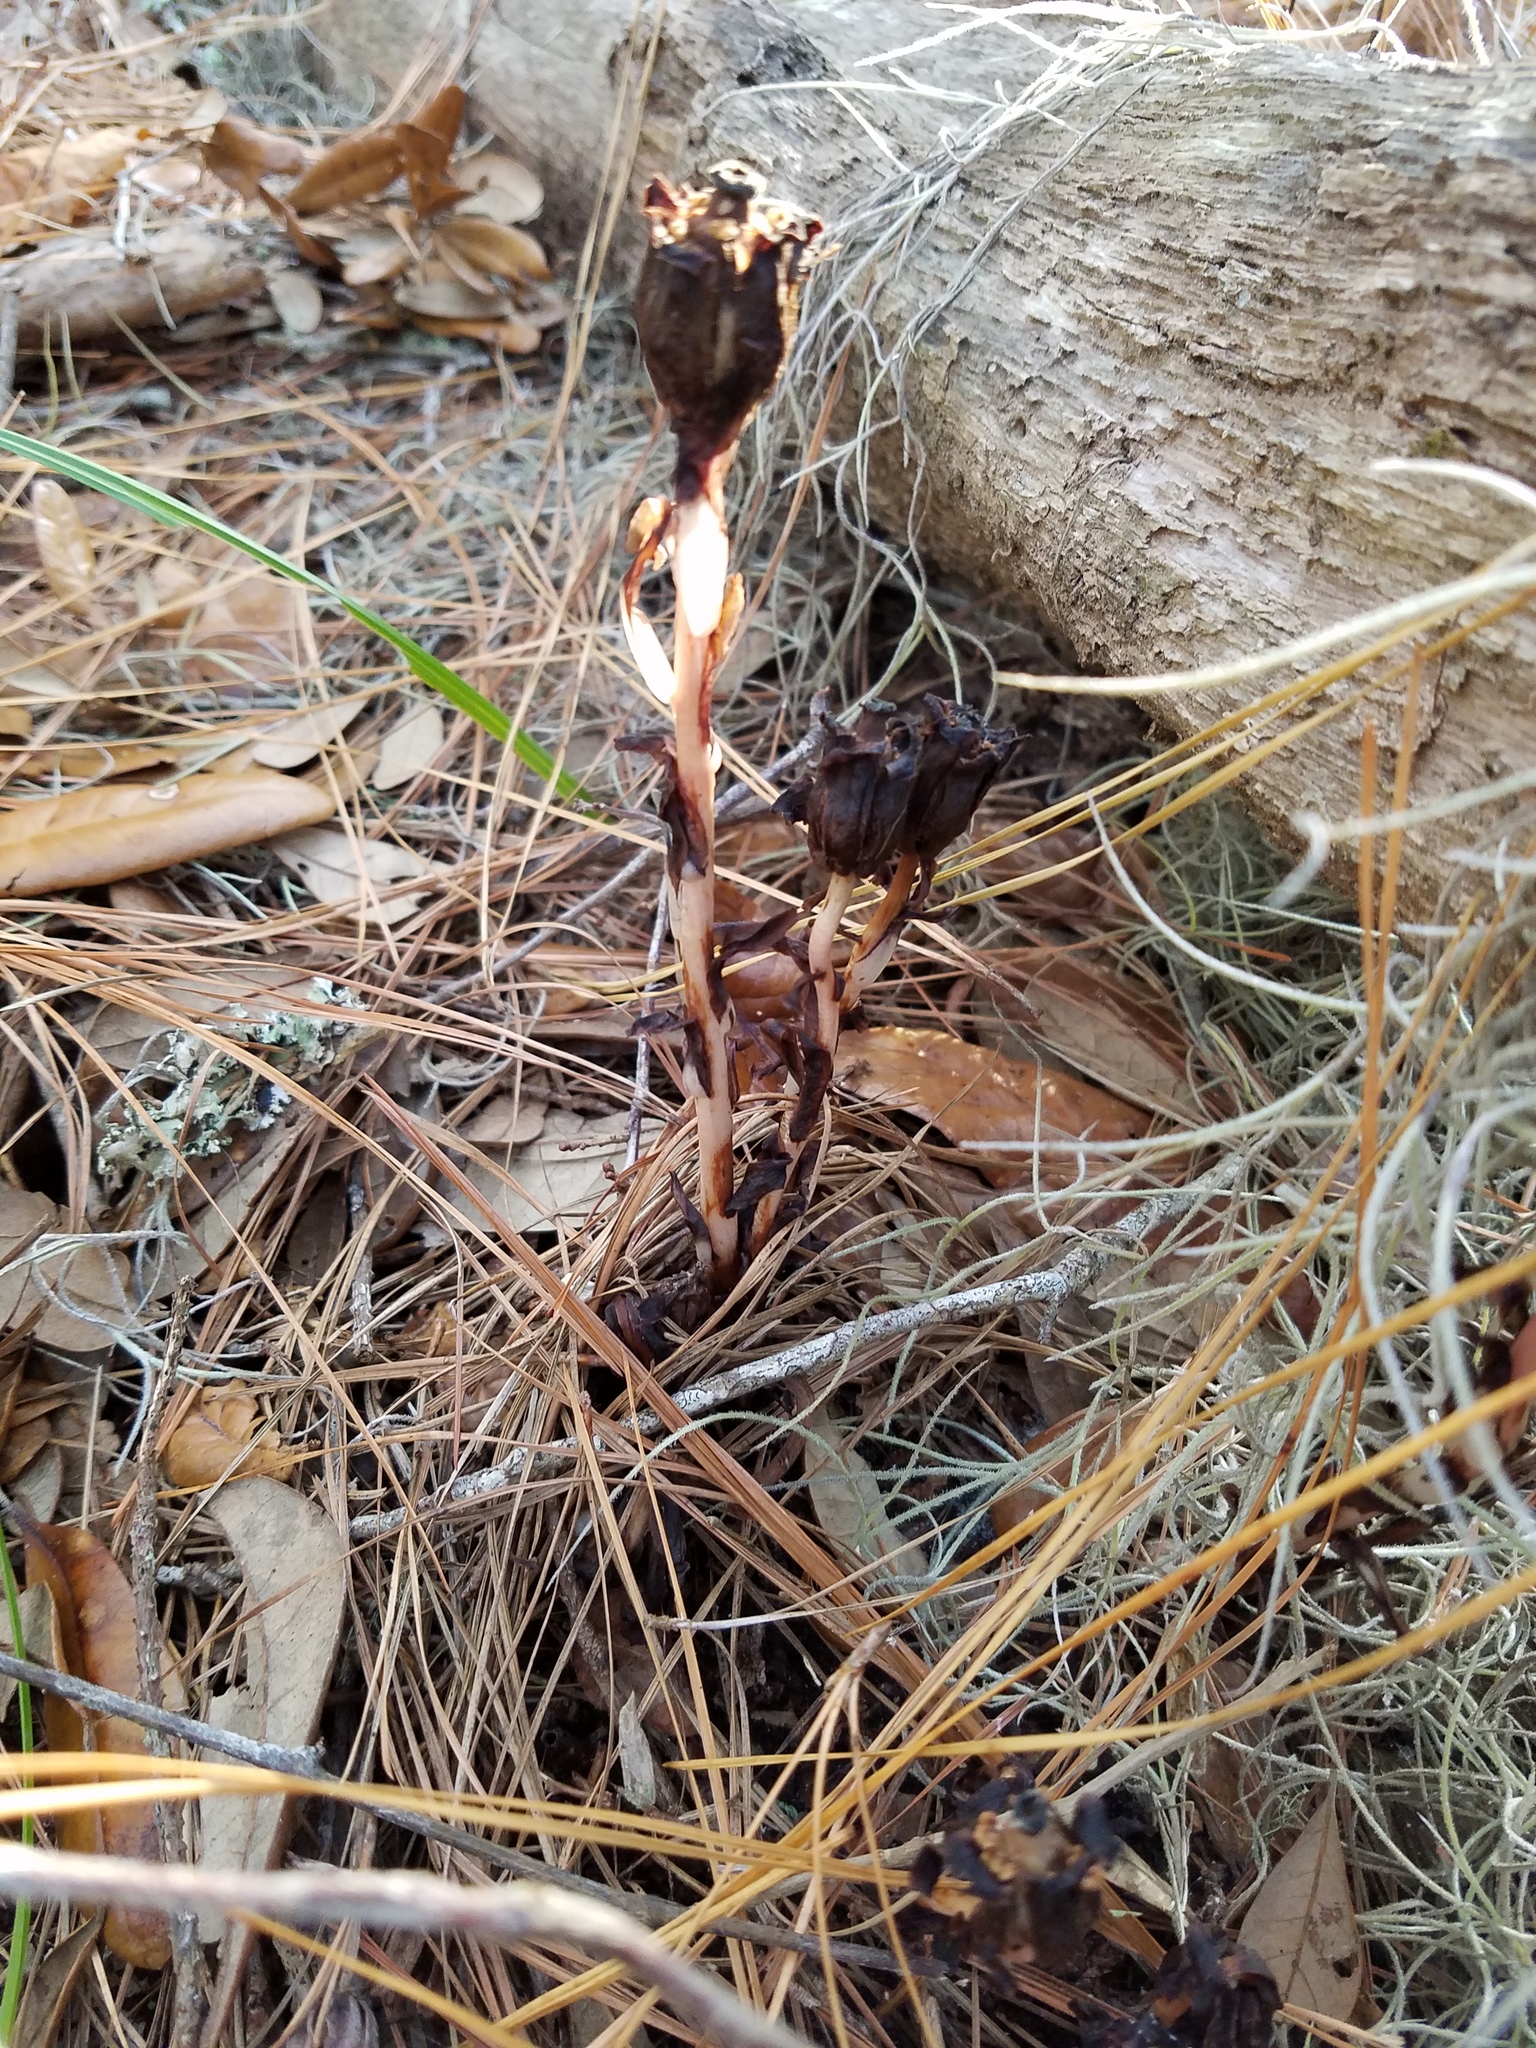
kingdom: Plantae
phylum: Tracheophyta
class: Magnoliopsida
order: Ericales
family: Ericaceae
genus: Monotropa
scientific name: Monotropa uniflora
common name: Convulsion root
